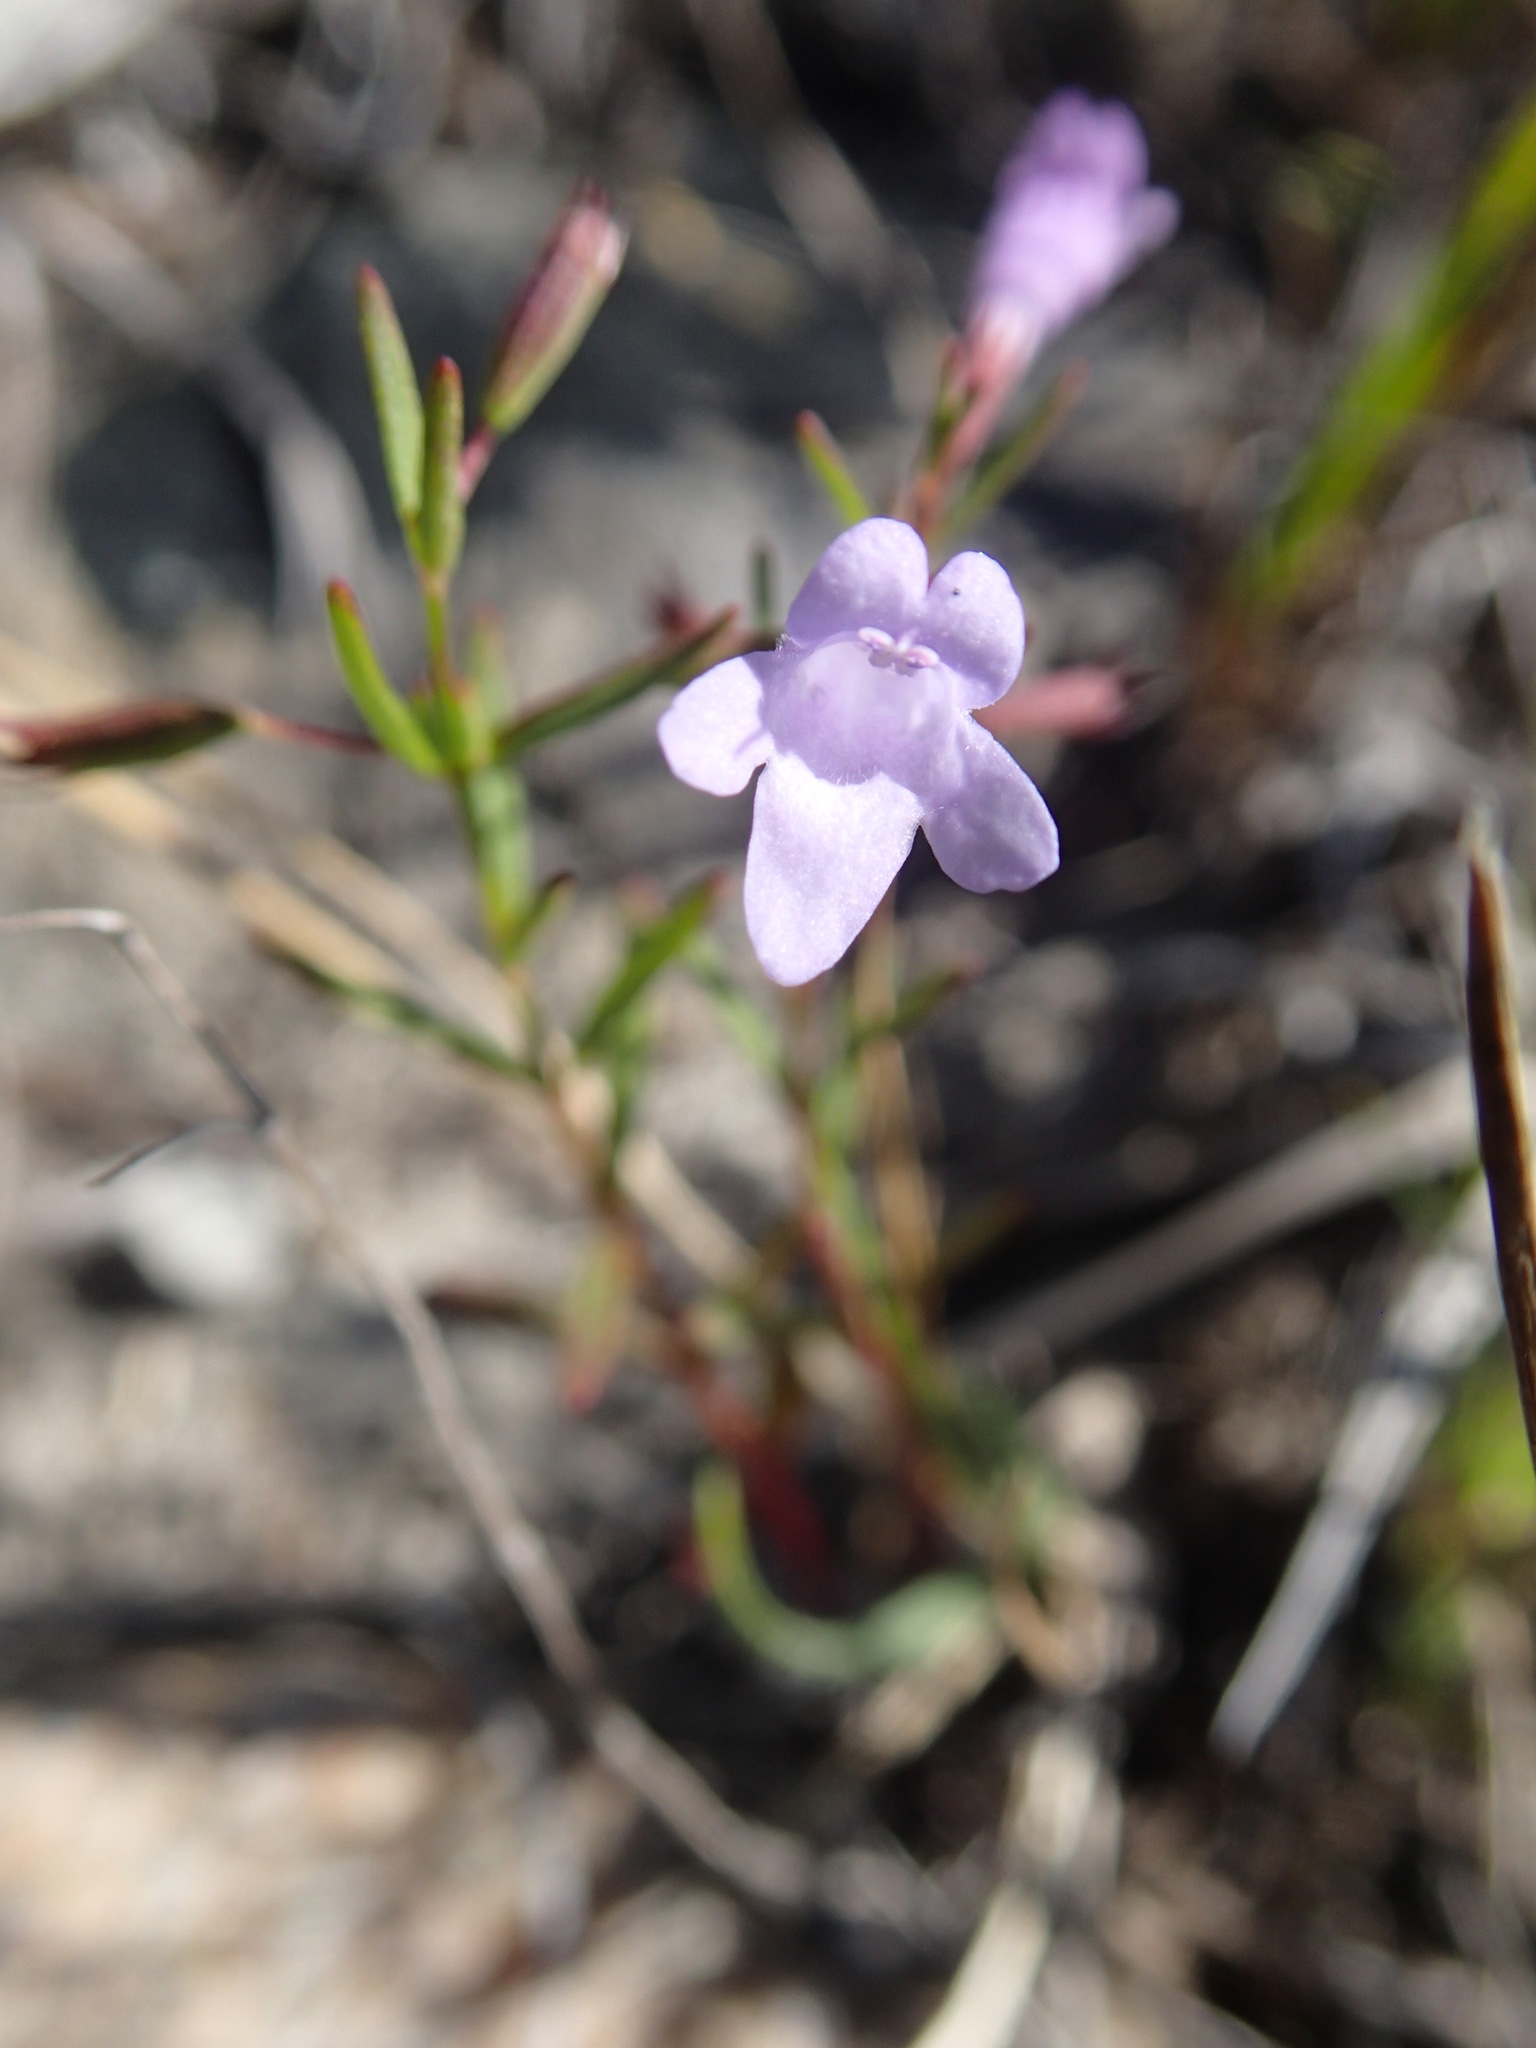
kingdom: Plantae
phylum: Tracheophyta
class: Magnoliopsida
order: Lamiales
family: Lamiaceae
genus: Clinopodium
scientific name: Clinopodium arkansanum
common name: Limestone calamint
